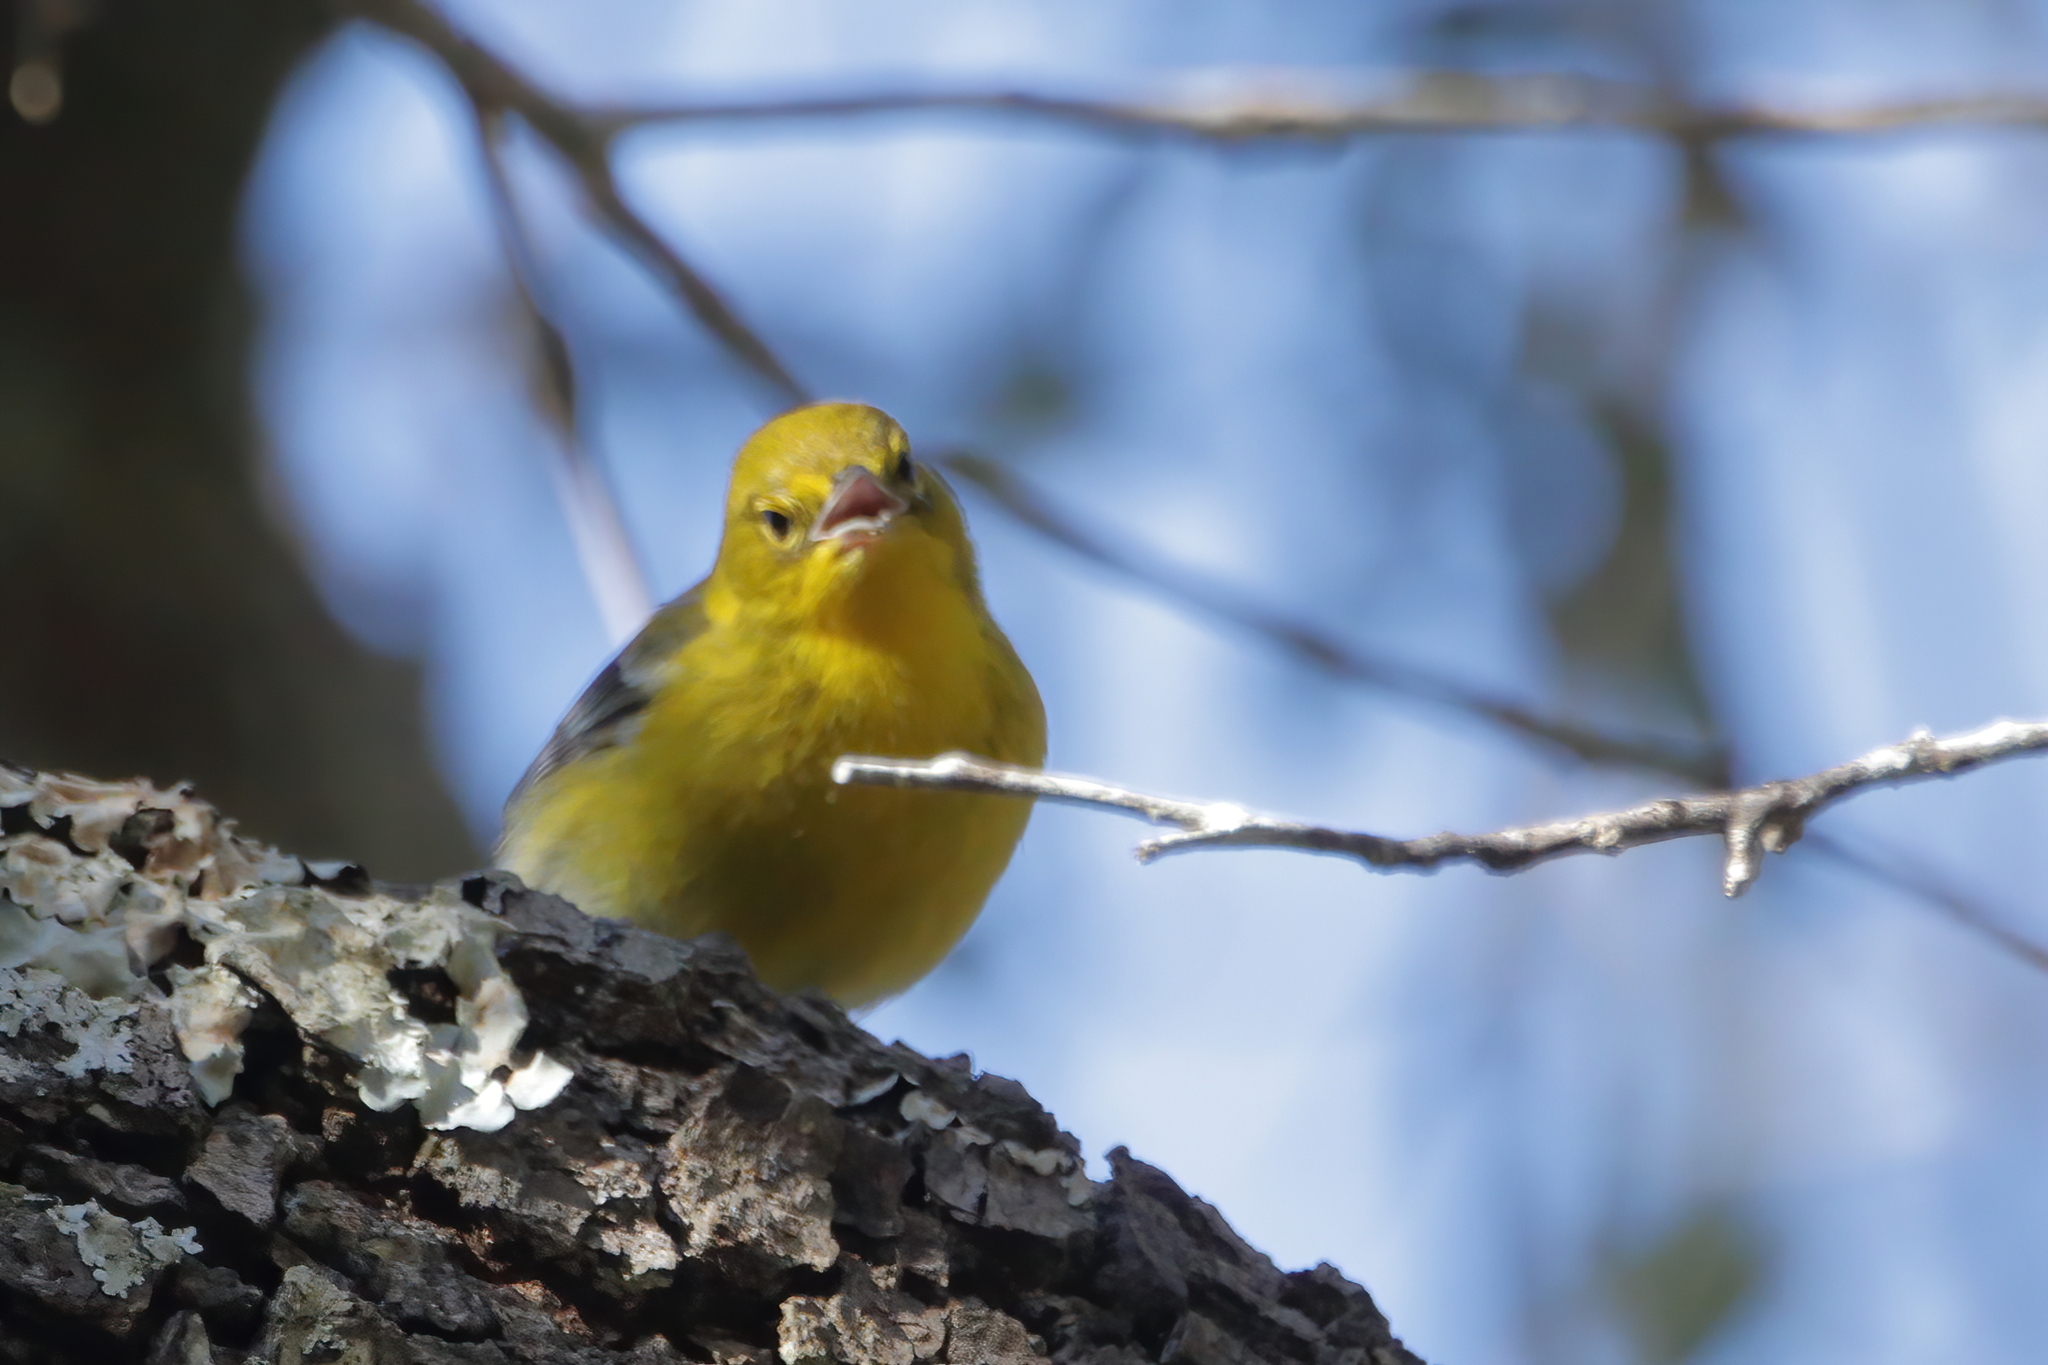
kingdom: Animalia
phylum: Chordata
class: Aves
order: Passeriformes
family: Parulidae
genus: Setophaga
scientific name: Setophaga pinus
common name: Pine warbler
